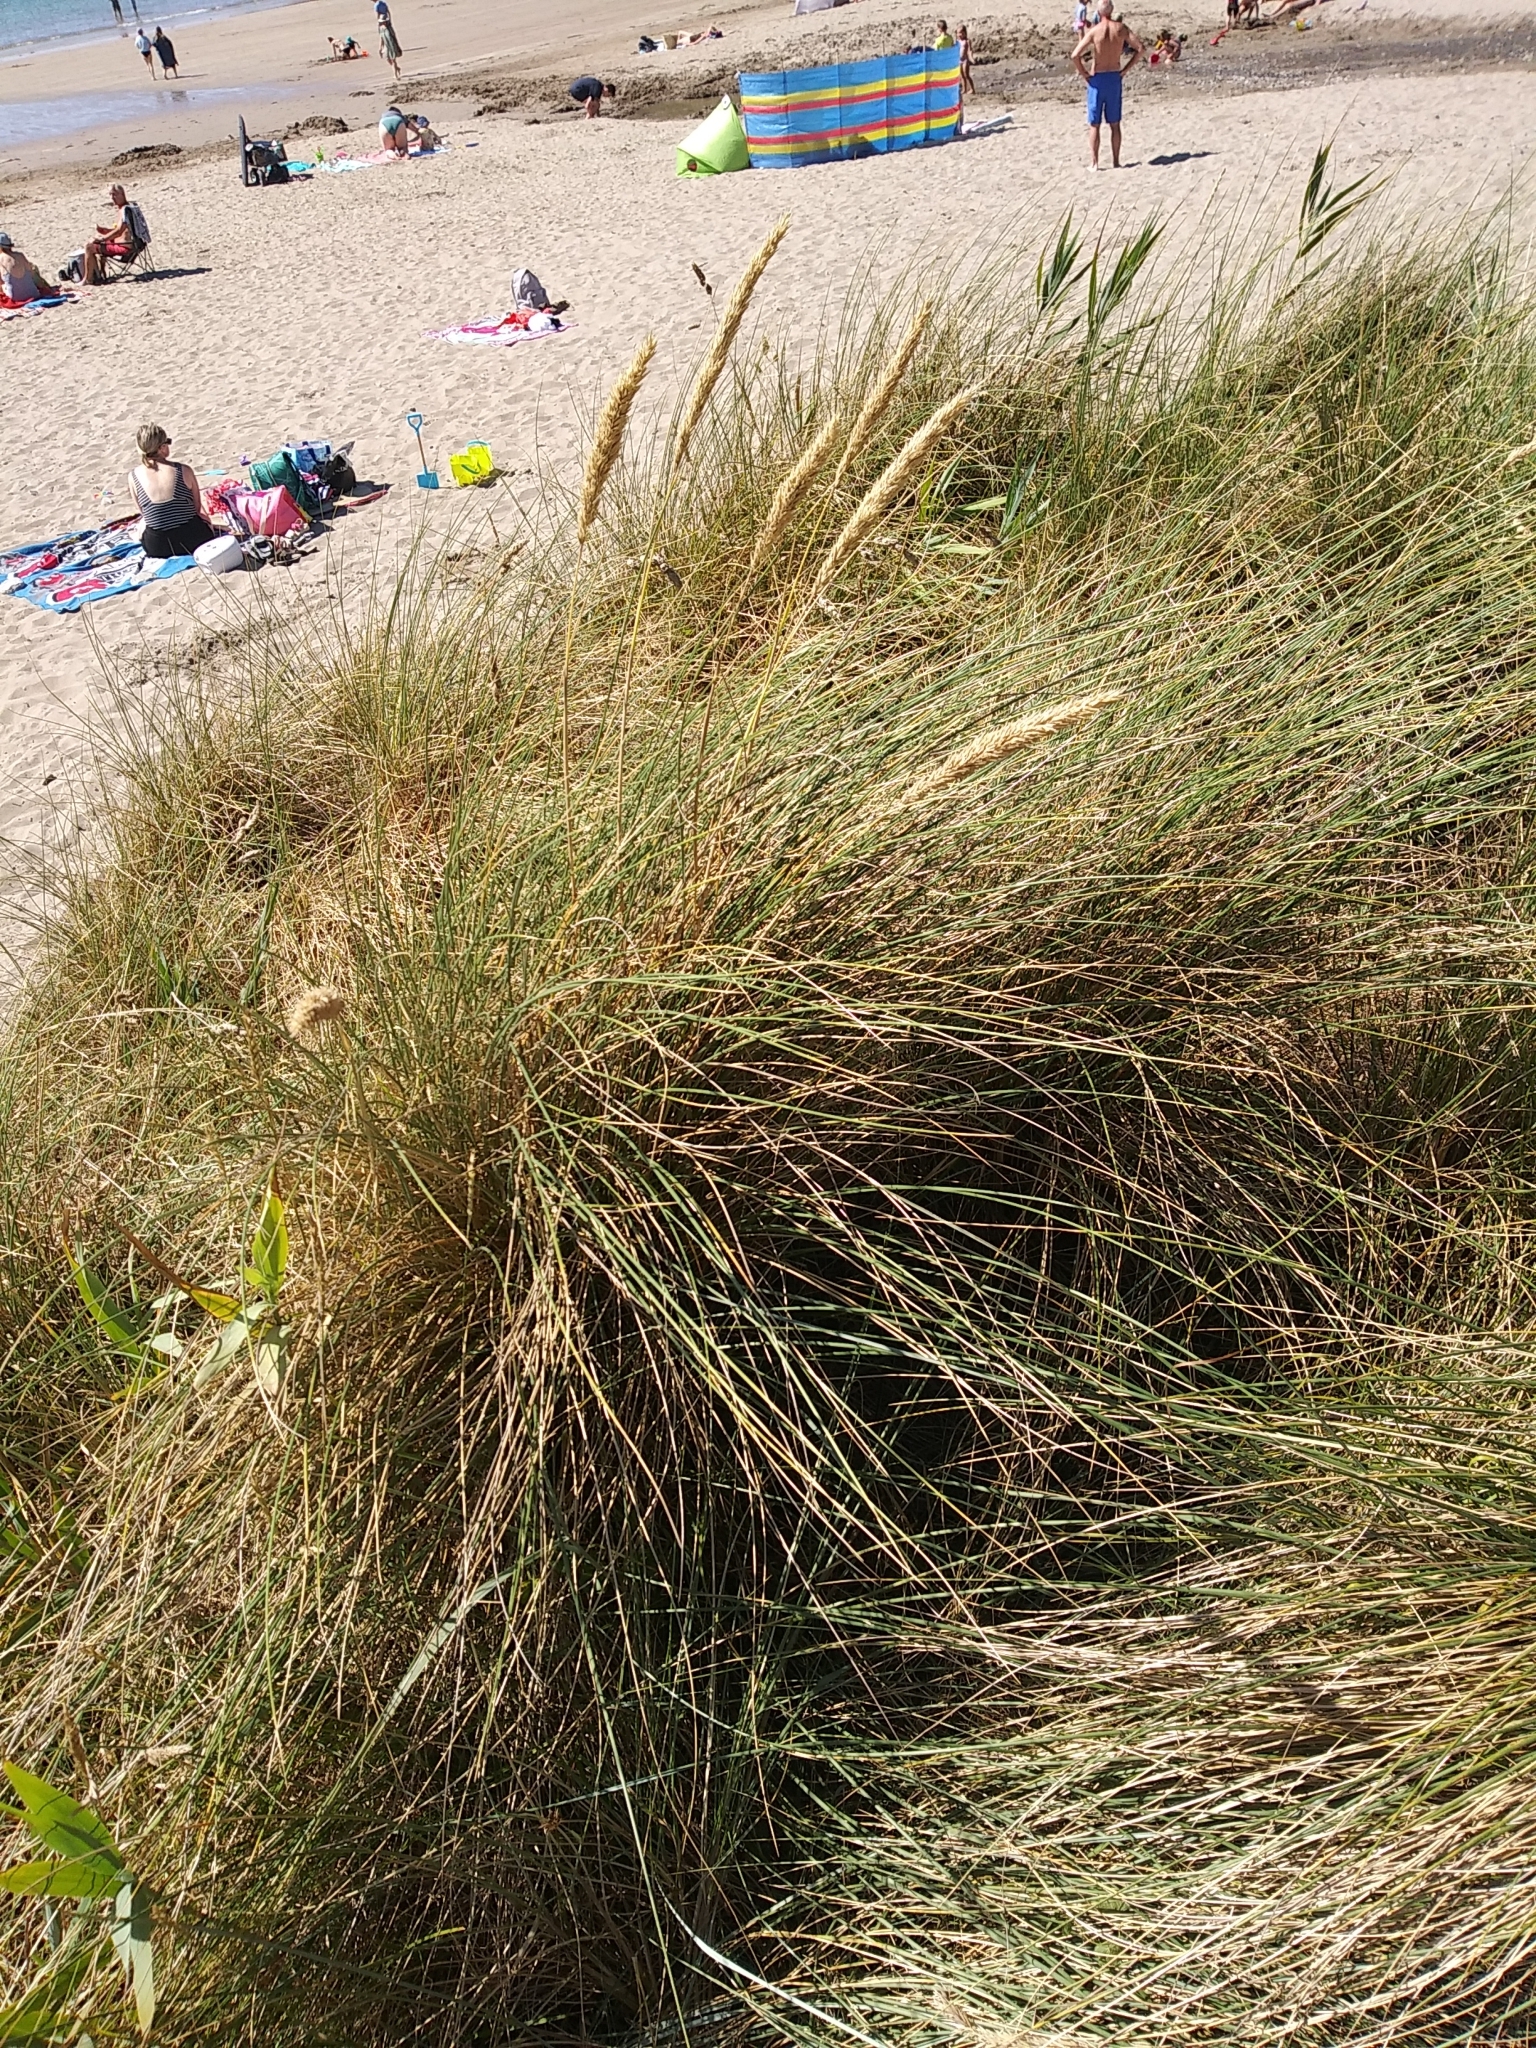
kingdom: Plantae
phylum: Tracheophyta
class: Liliopsida
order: Poales
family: Poaceae
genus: Calamagrostis
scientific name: Calamagrostis arenaria
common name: European beachgrass
